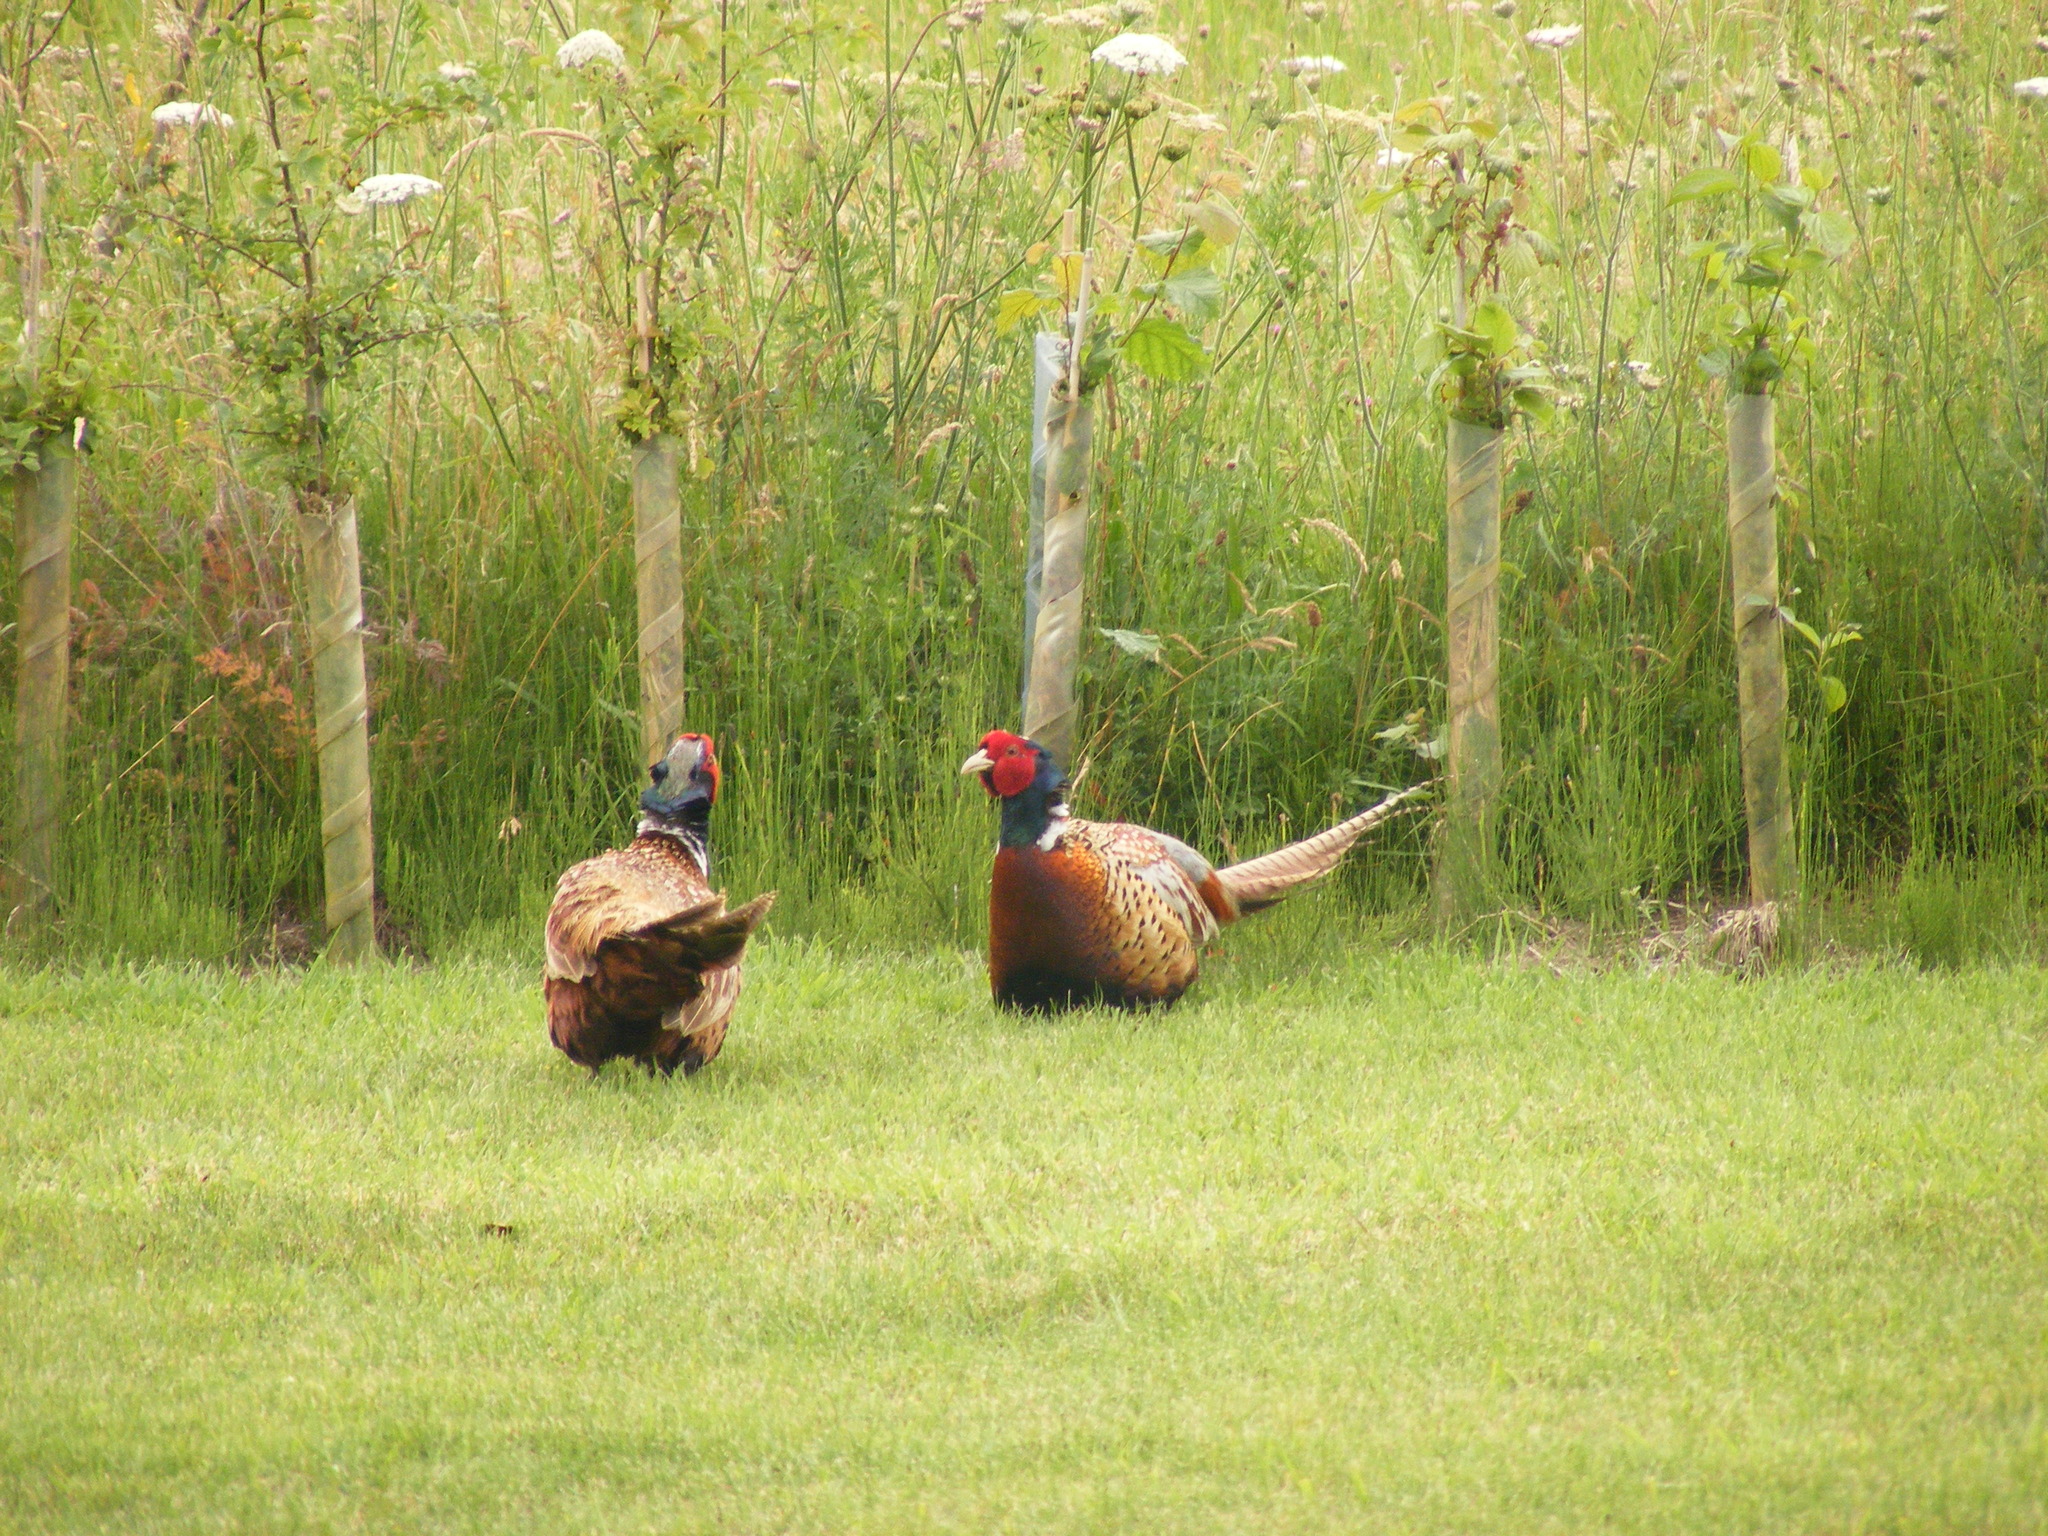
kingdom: Animalia
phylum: Chordata
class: Aves
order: Galliformes
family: Phasianidae
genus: Phasianus
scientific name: Phasianus colchicus
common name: Common pheasant
